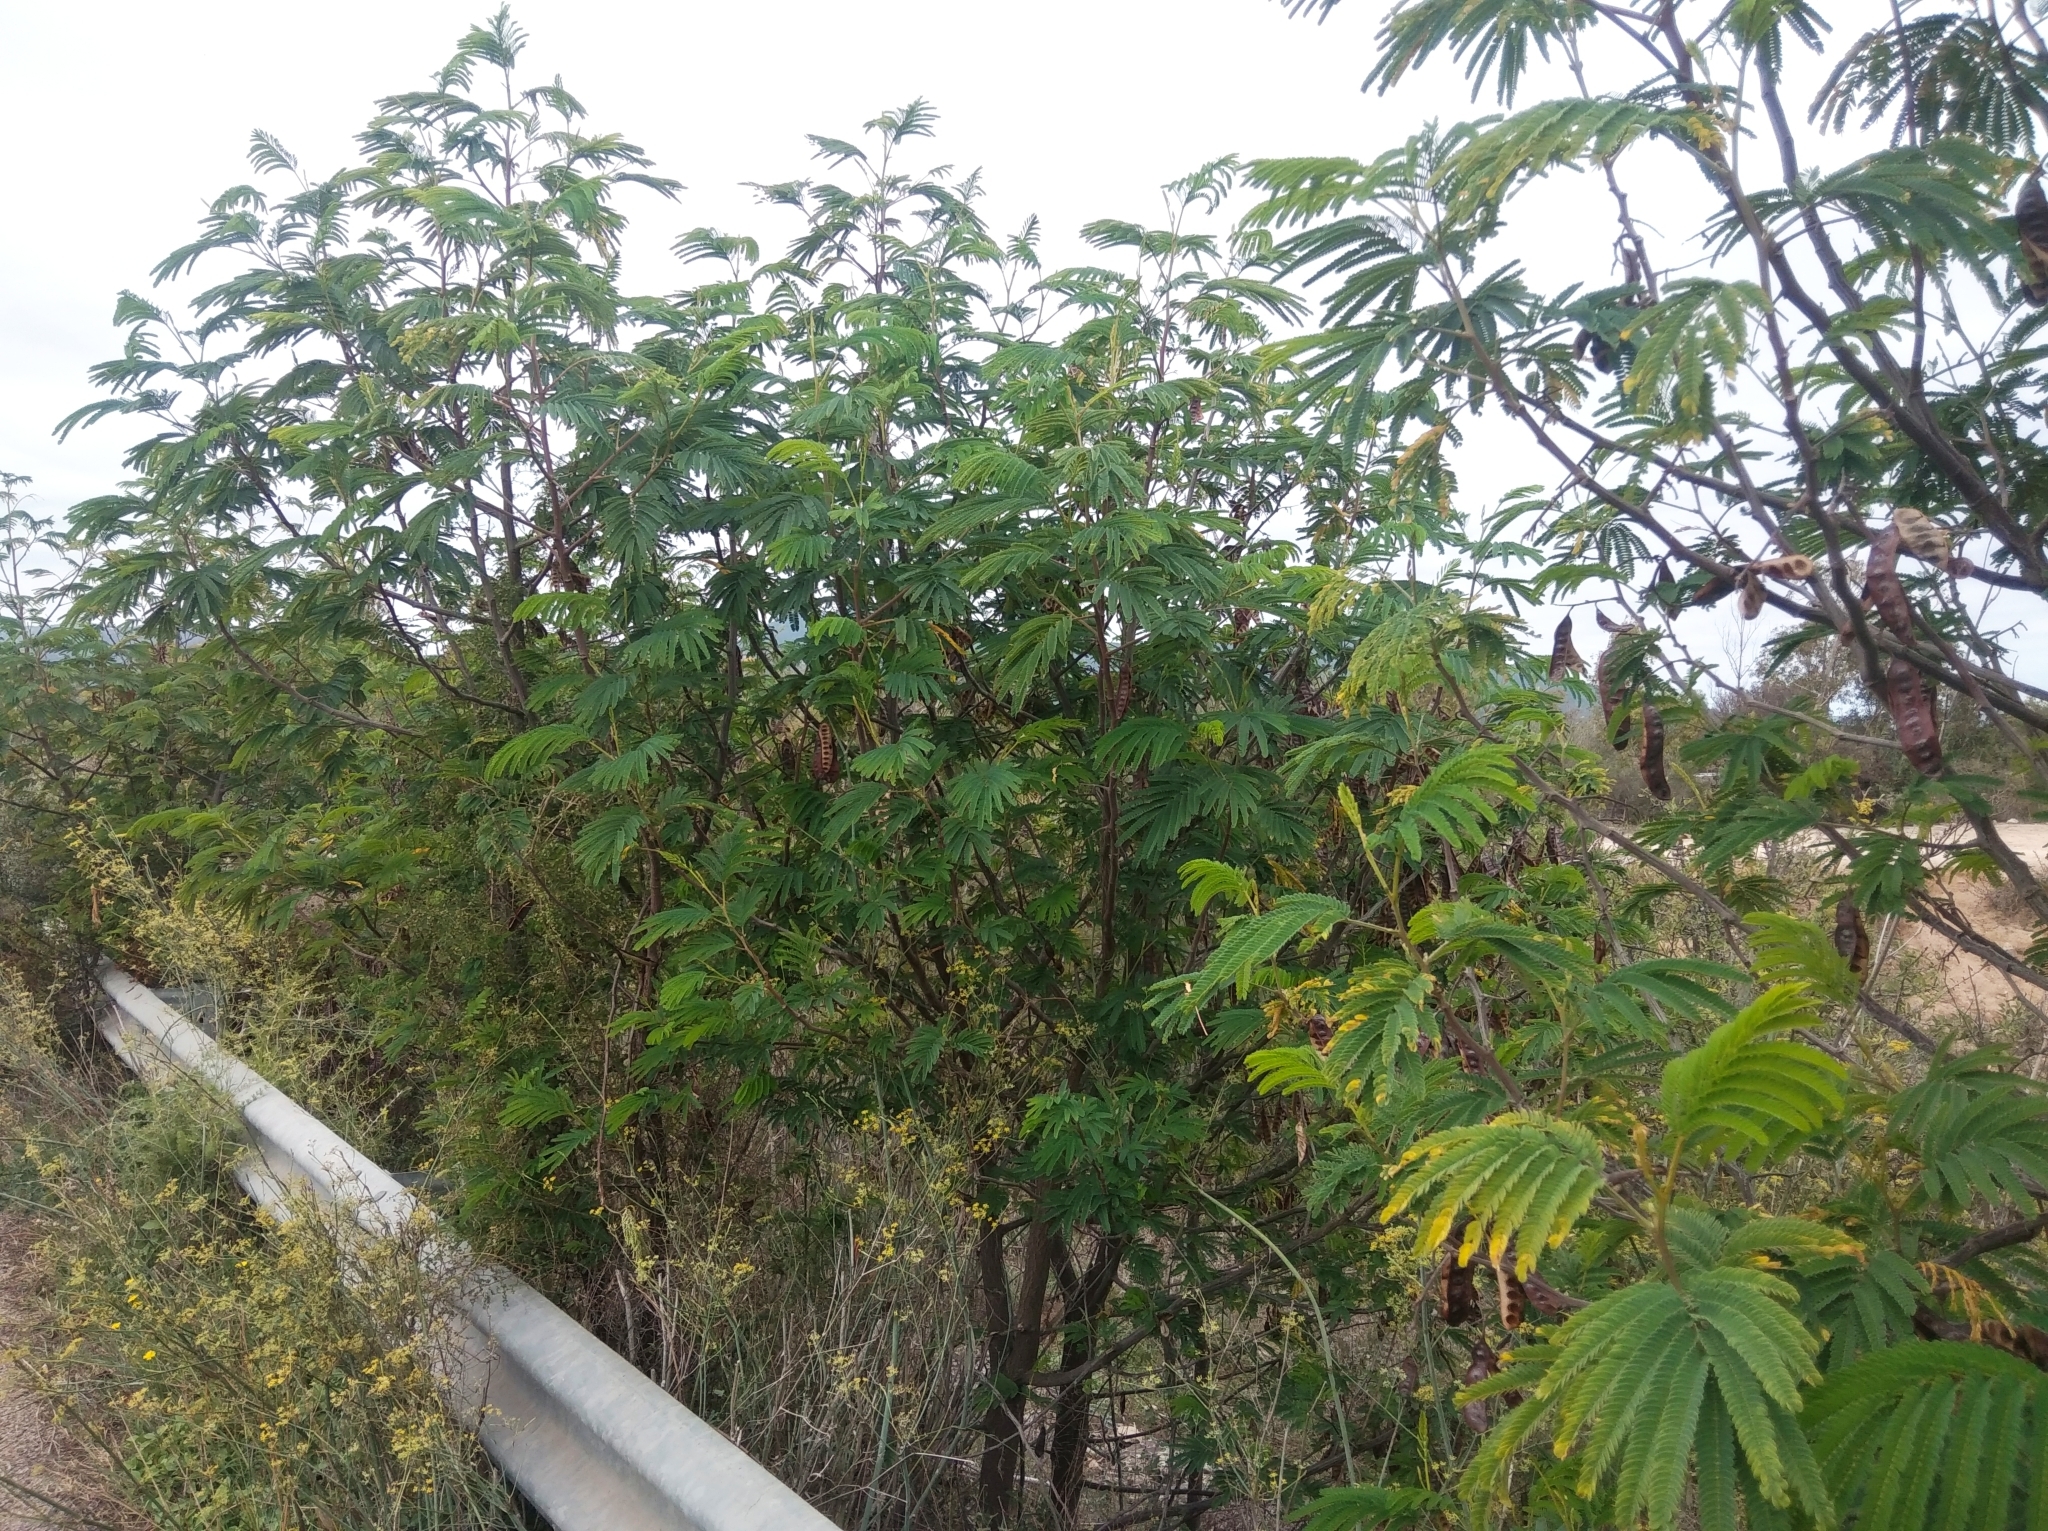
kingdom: Plantae
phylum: Tracheophyta
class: Magnoliopsida
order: Fabales
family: Fabaceae
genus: Paraserianthes
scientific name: Paraserianthes lophantha
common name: Plume albizia
